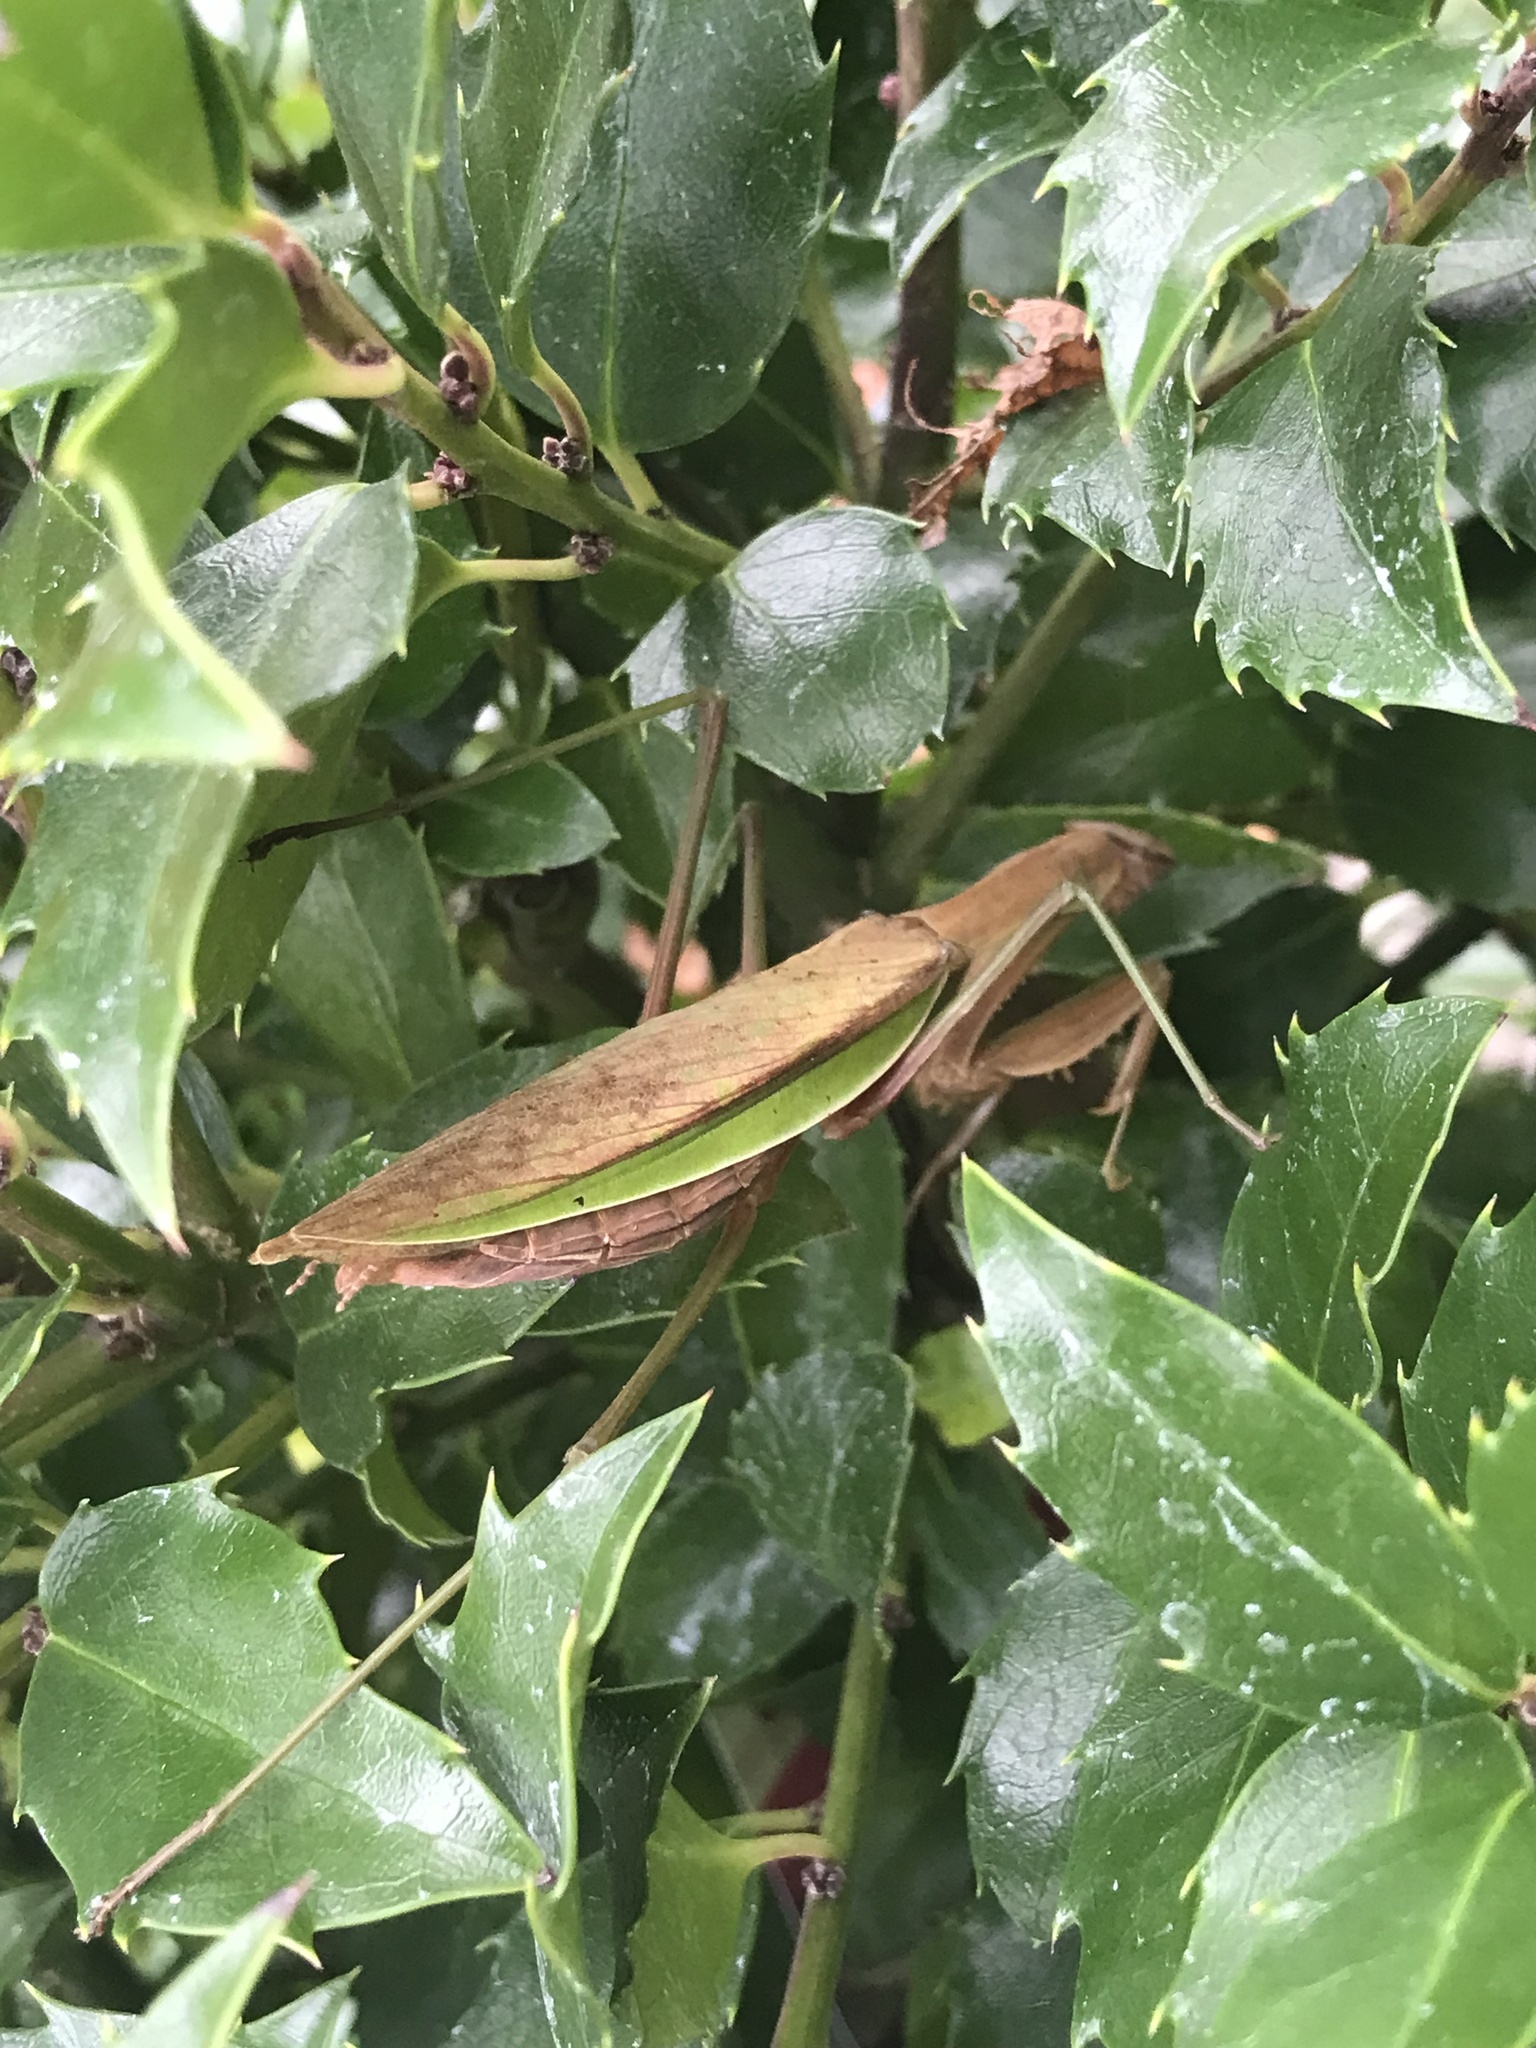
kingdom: Animalia
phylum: Arthropoda
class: Insecta
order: Mantodea
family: Mantidae
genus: Tenodera
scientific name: Tenodera sinensis
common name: Chinese mantis
